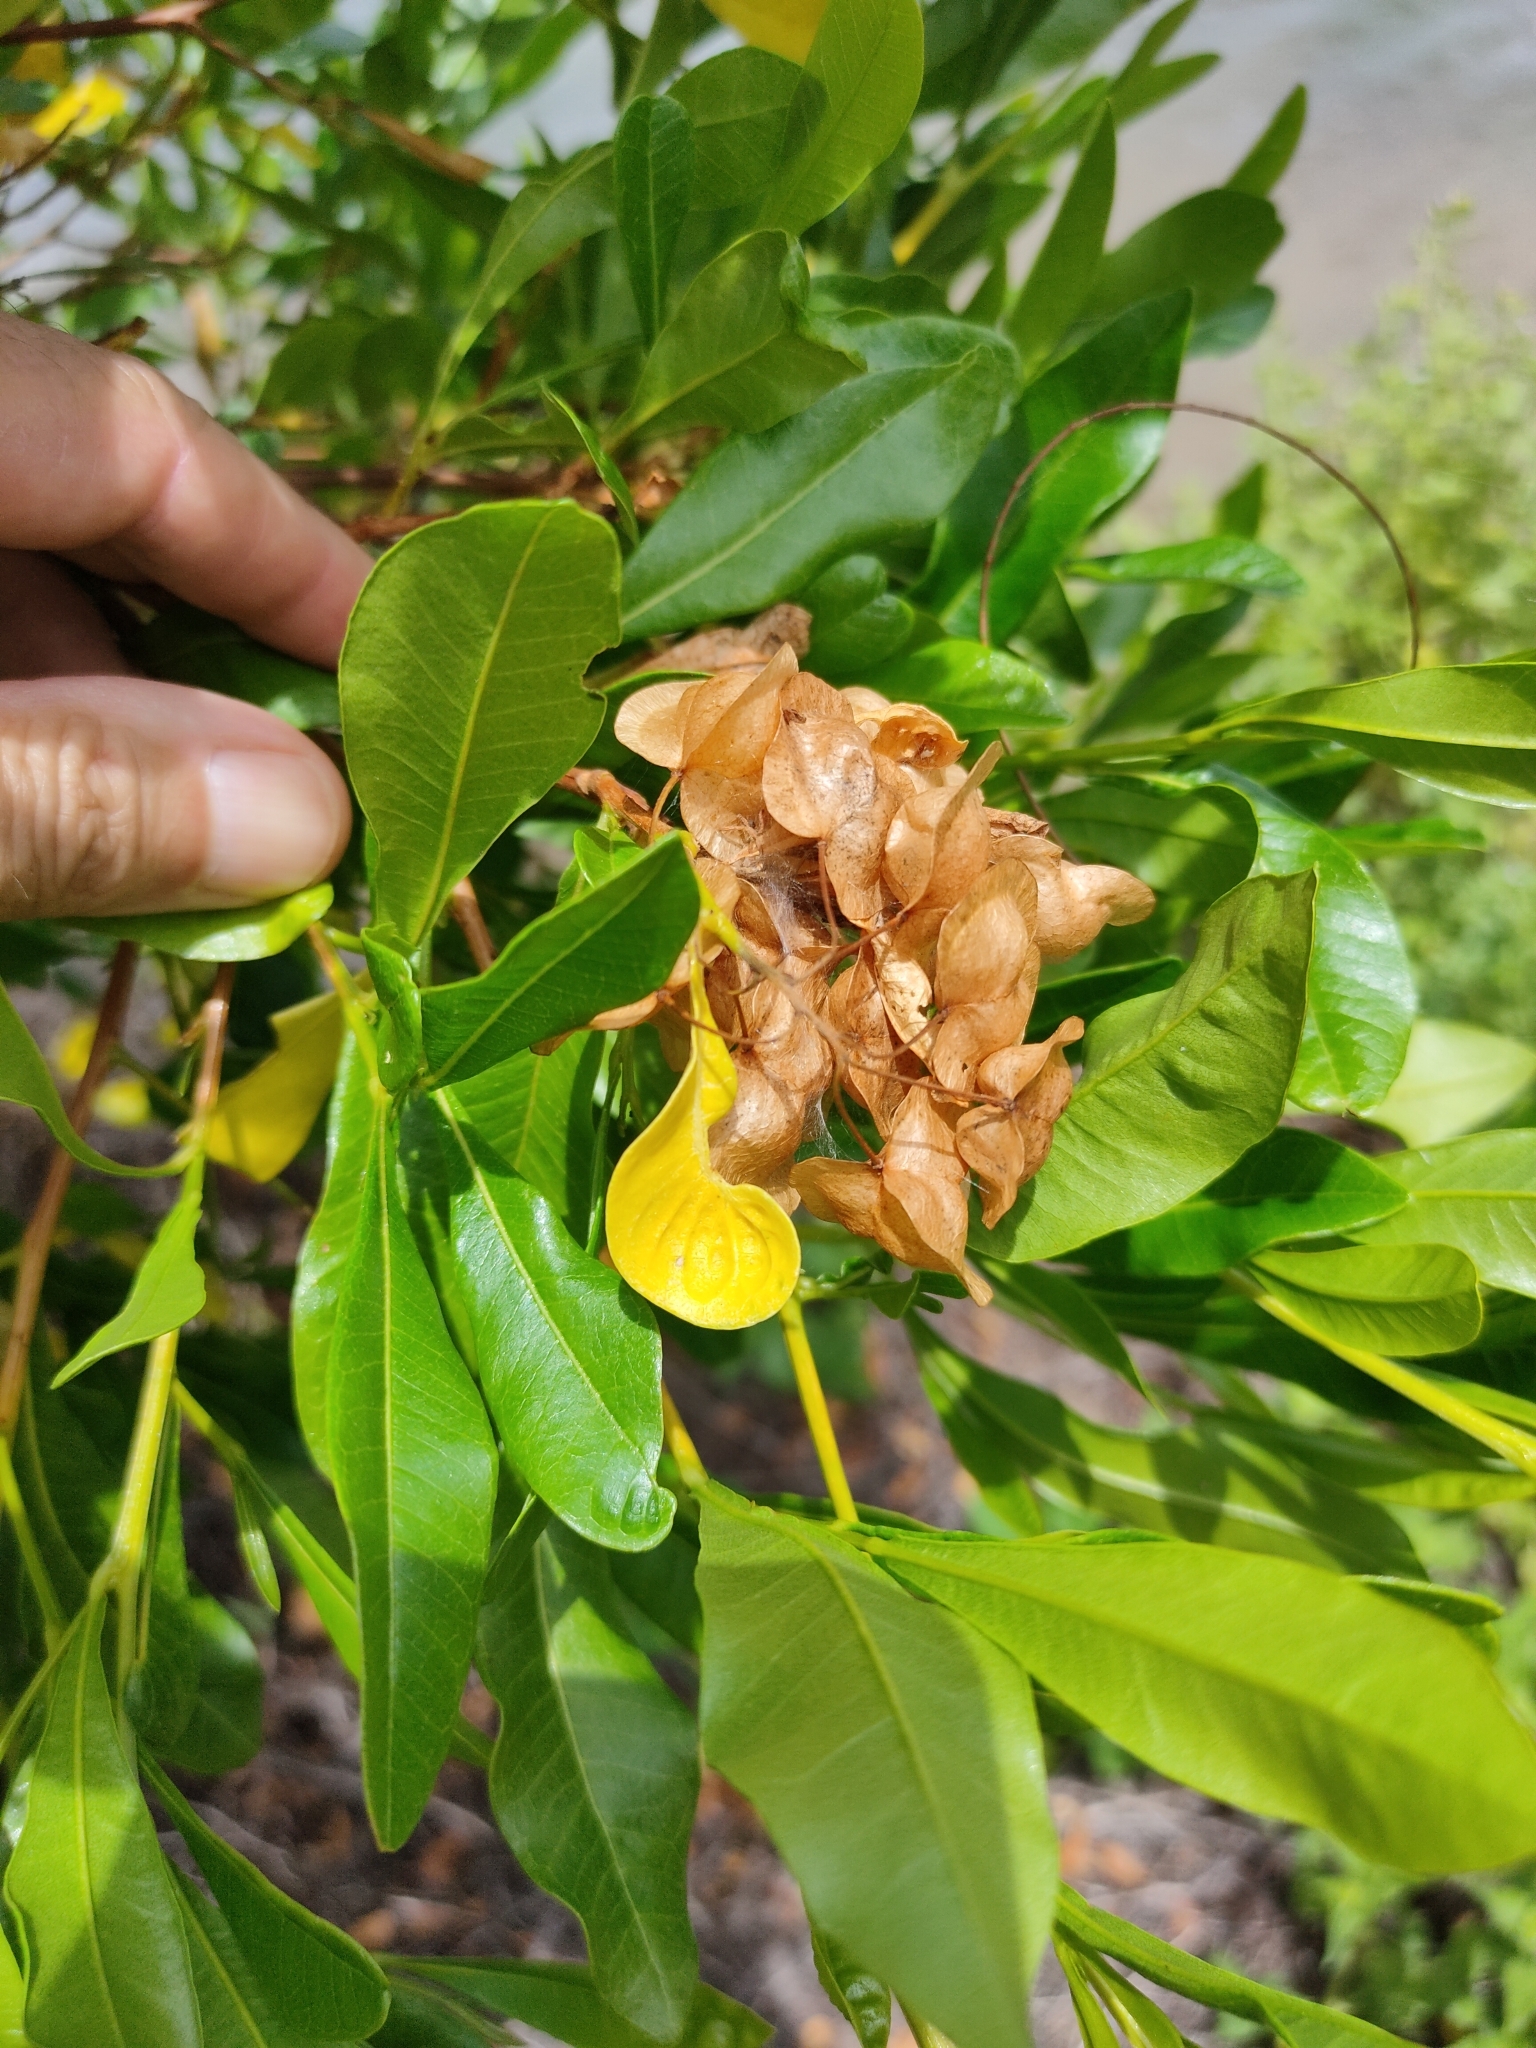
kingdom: Plantae
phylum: Tracheophyta
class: Magnoliopsida
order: Sapindales
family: Sapindaceae
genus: Dodonaea
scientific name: Dodonaea viscosa
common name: Hopbush
